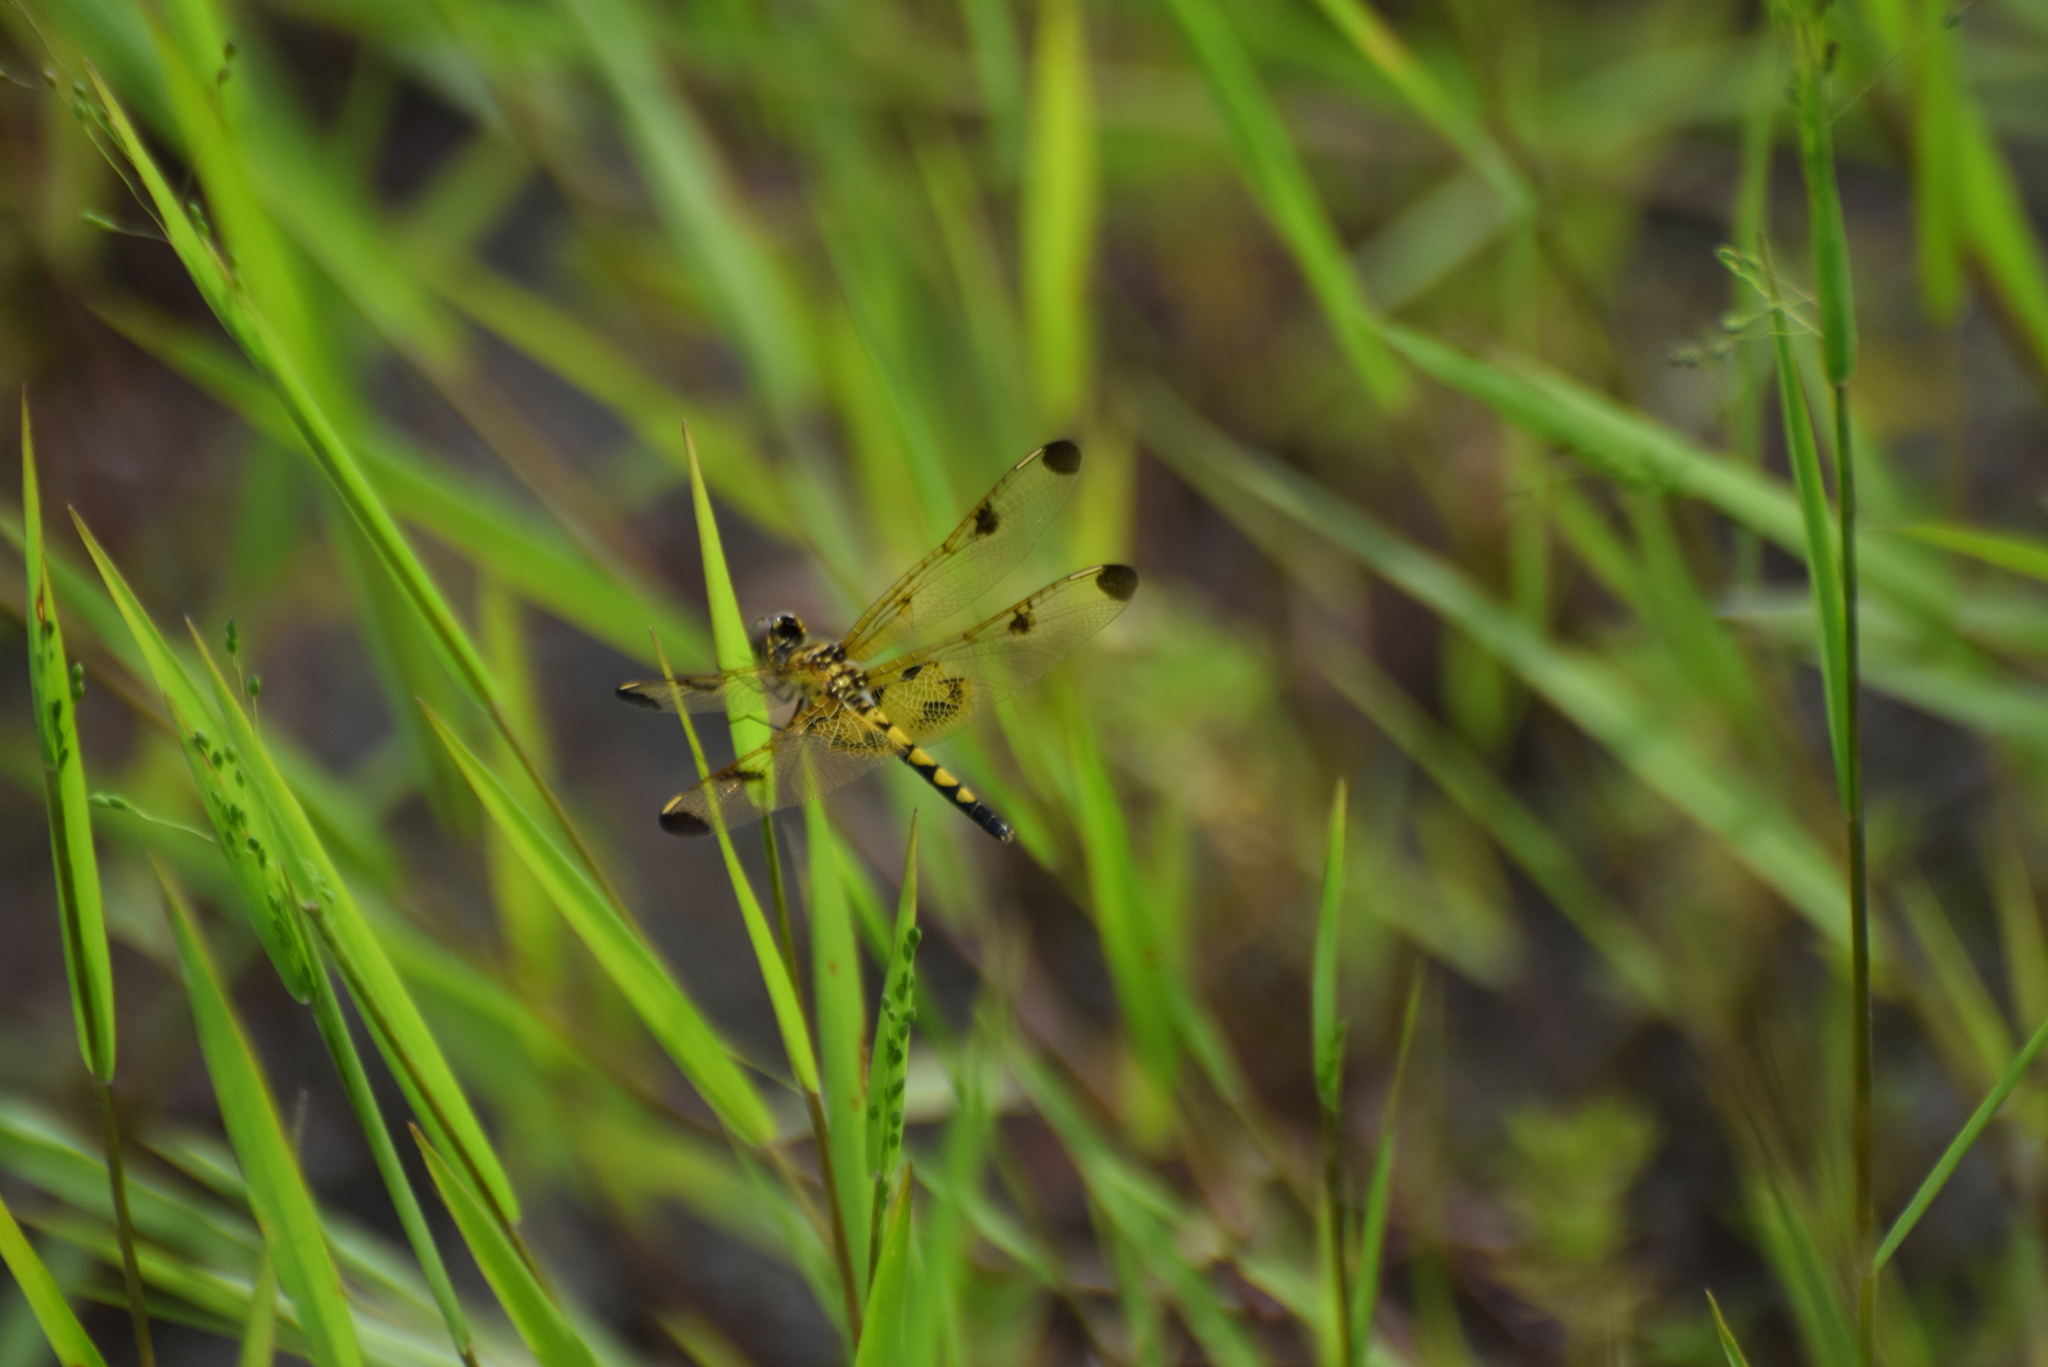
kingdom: Animalia
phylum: Arthropoda
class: Insecta
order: Odonata
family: Libellulidae
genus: Celithemis
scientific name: Celithemis elisa
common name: Calico pennant
